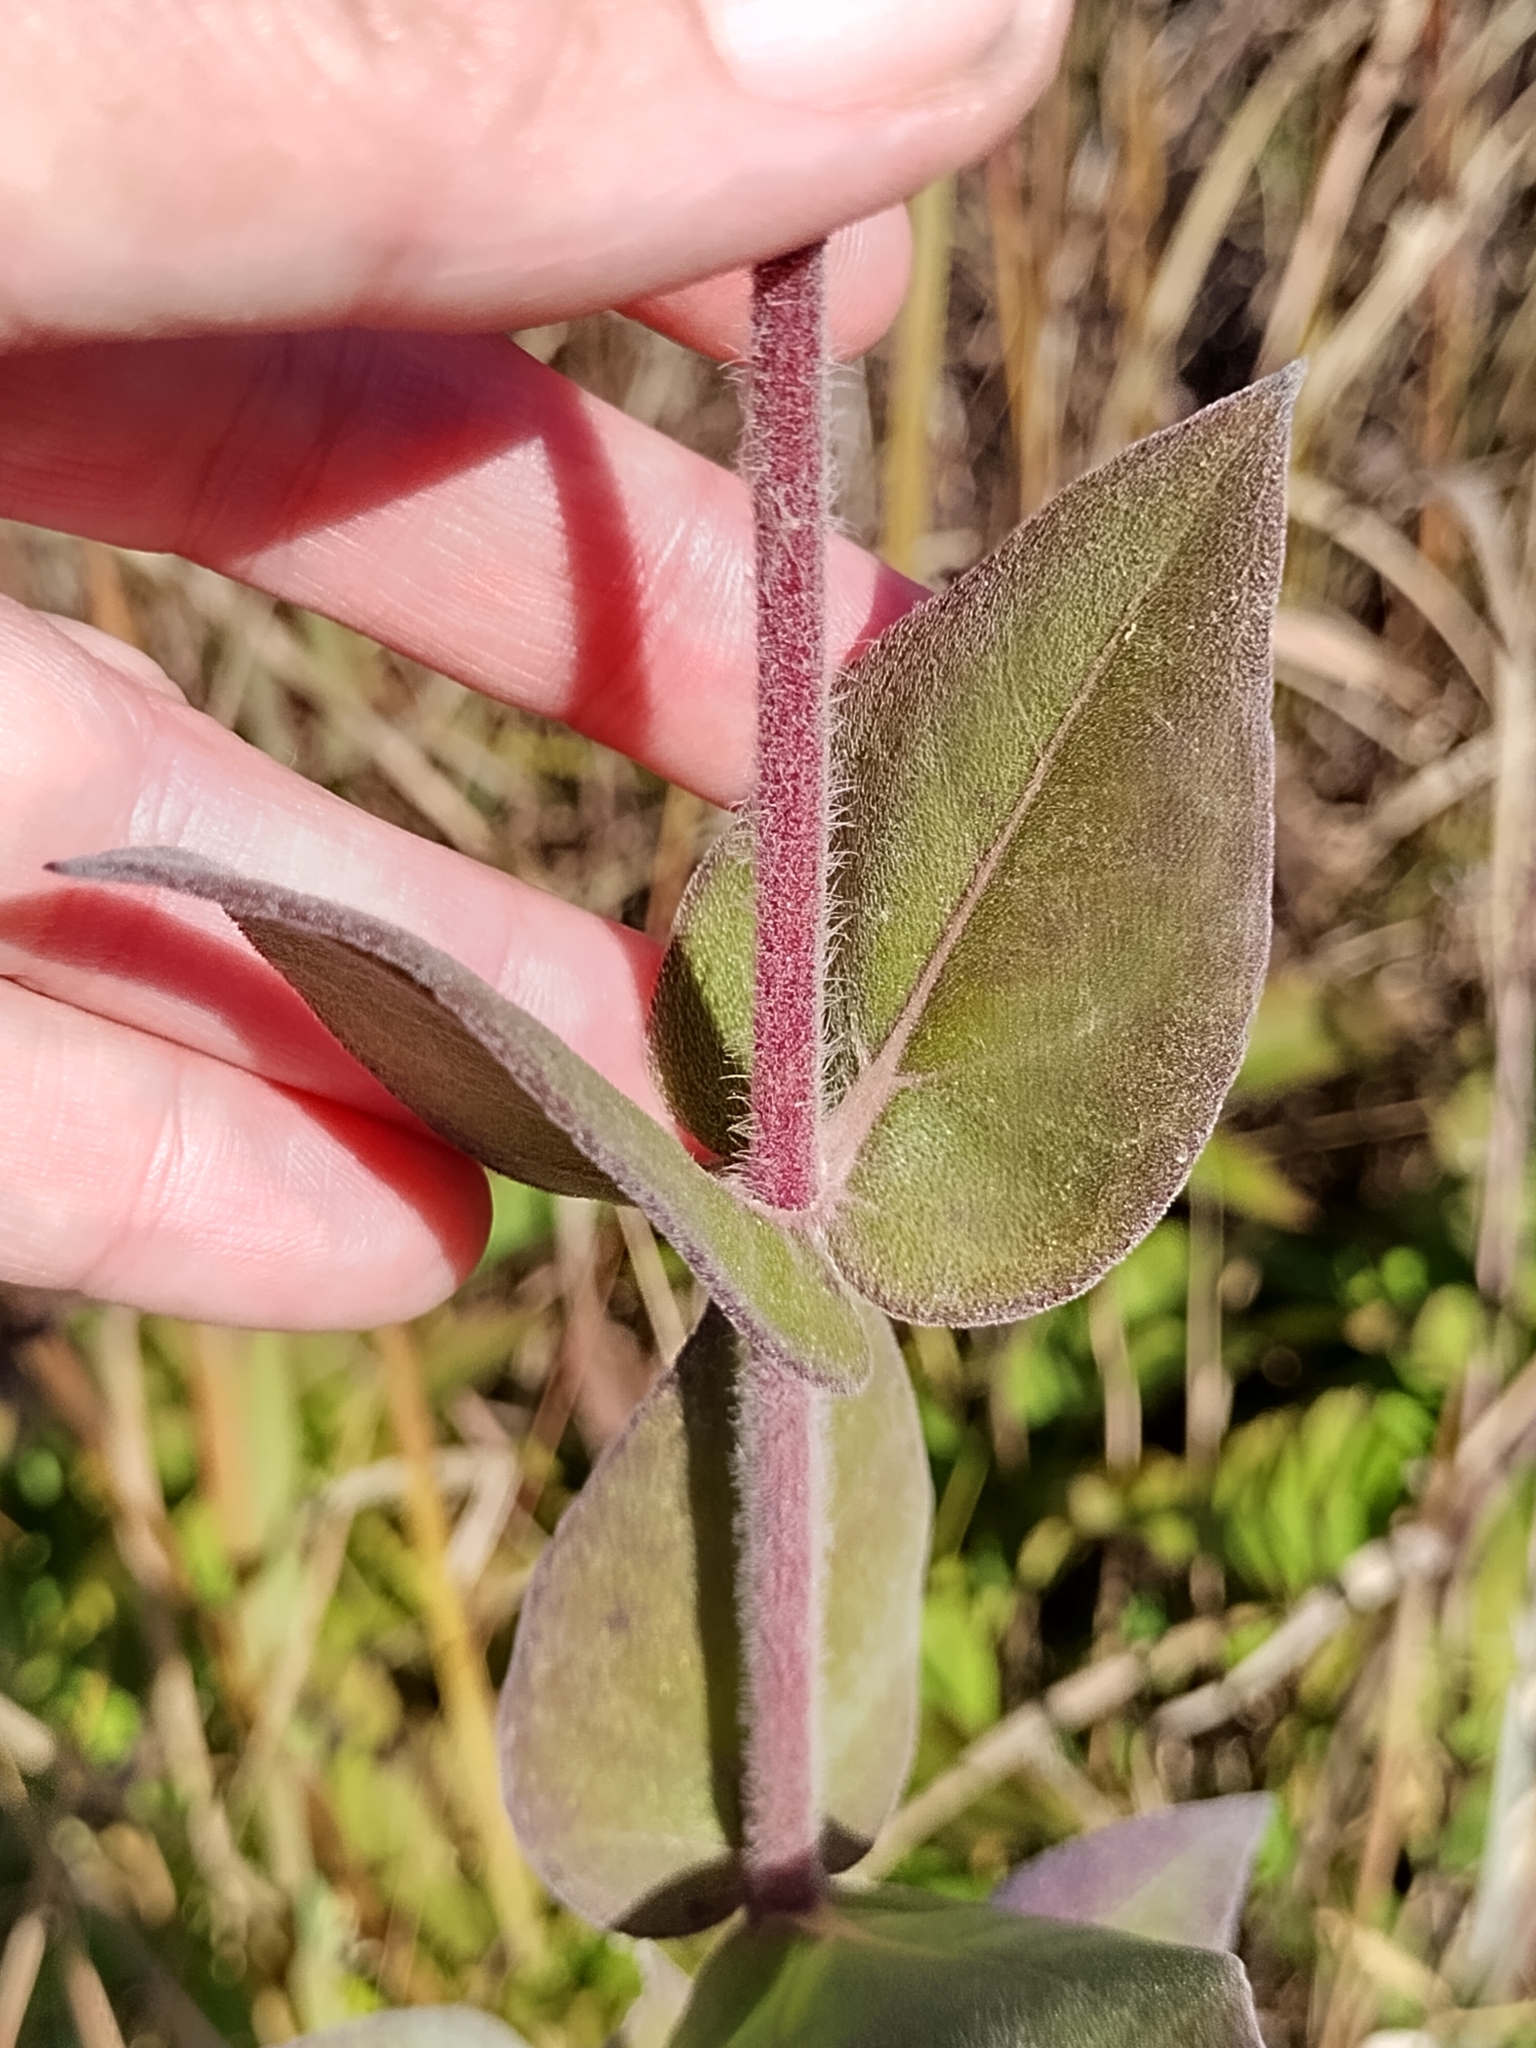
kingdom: Plantae
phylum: Tracheophyta
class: Magnoliopsida
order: Asterales
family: Asteraceae
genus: Helianthus
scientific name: Helianthus mollis
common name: Ashy sunflower
